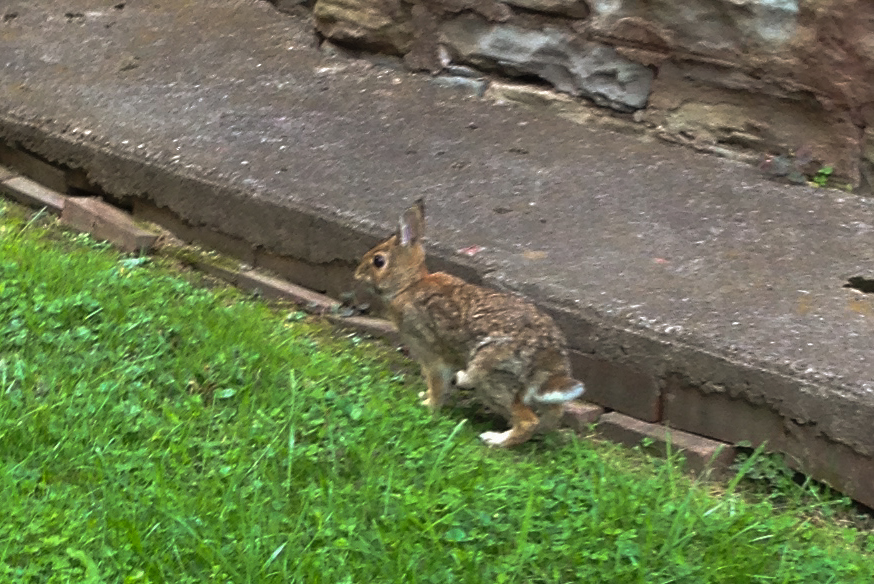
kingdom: Animalia
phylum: Chordata
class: Mammalia
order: Lagomorpha
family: Leporidae
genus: Sylvilagus
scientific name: Sylvilagus floridanus
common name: Eastern cottontail
